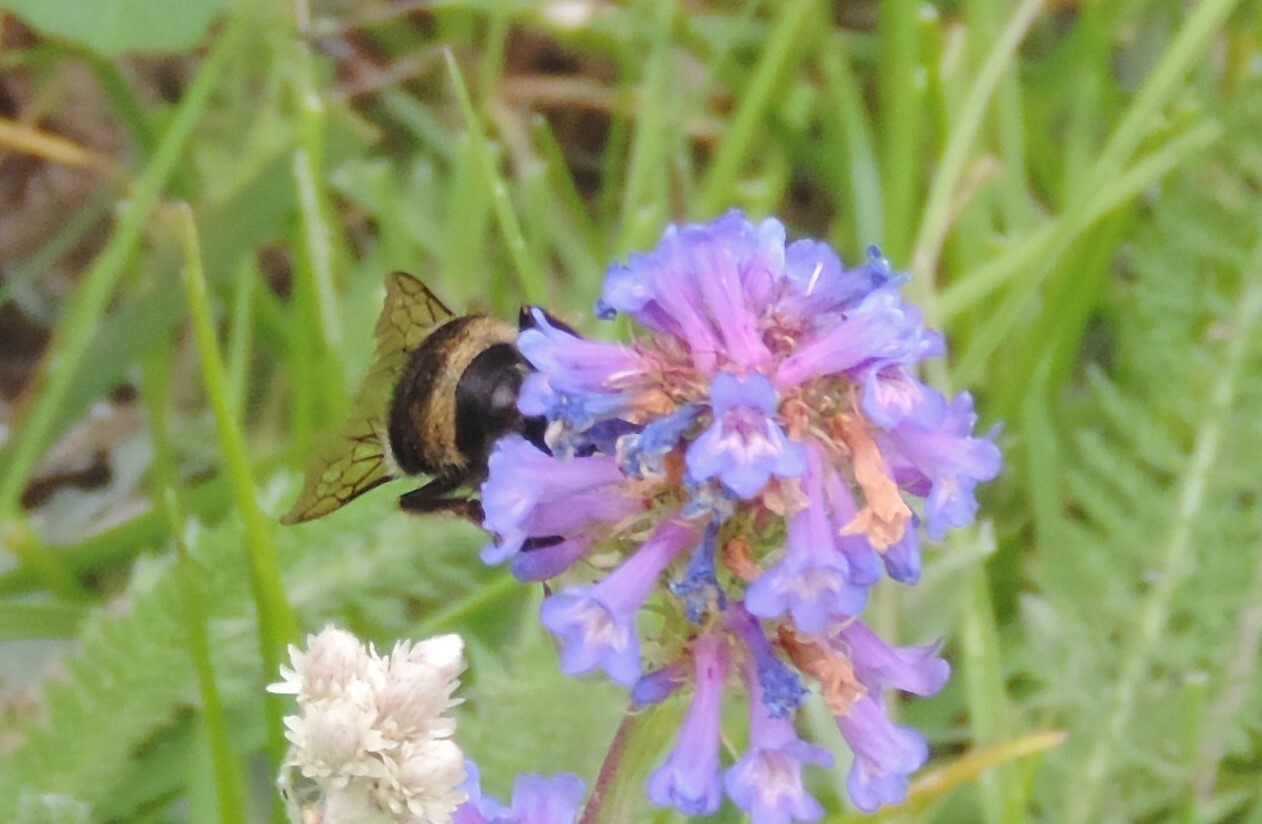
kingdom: Animalia
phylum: Arthropoda
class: Insecta
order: Hymenoptera
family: Apidae
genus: Bombus
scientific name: Bombus vancouverensis
